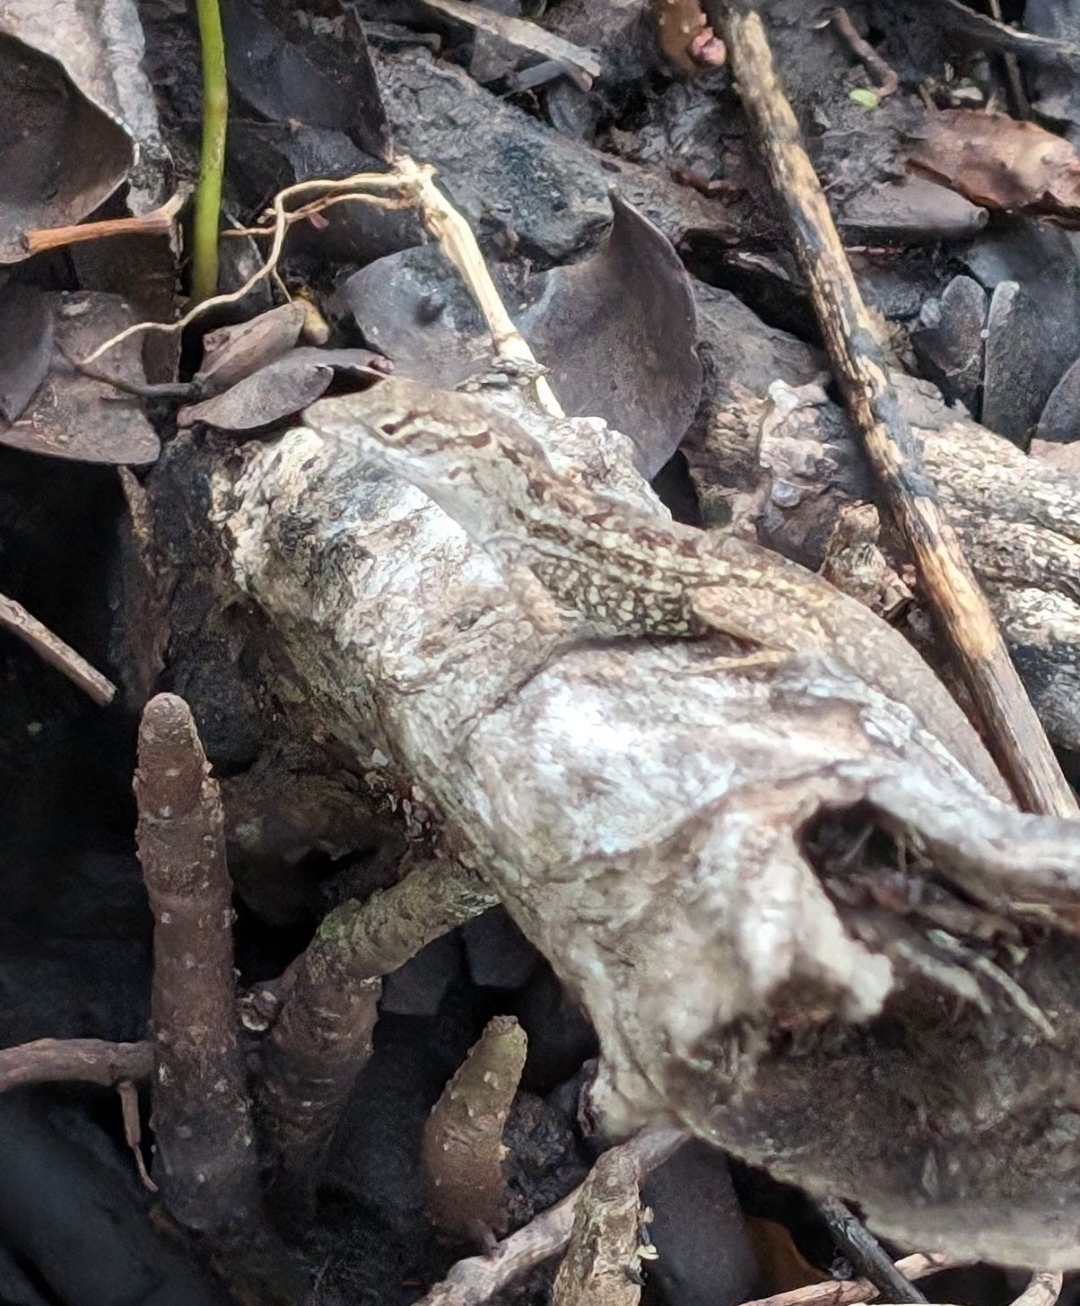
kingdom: Animalia
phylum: Chordata
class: Squamata
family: Dactyloidae
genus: Anolis
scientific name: Anolis sagrei
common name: Brown anole
